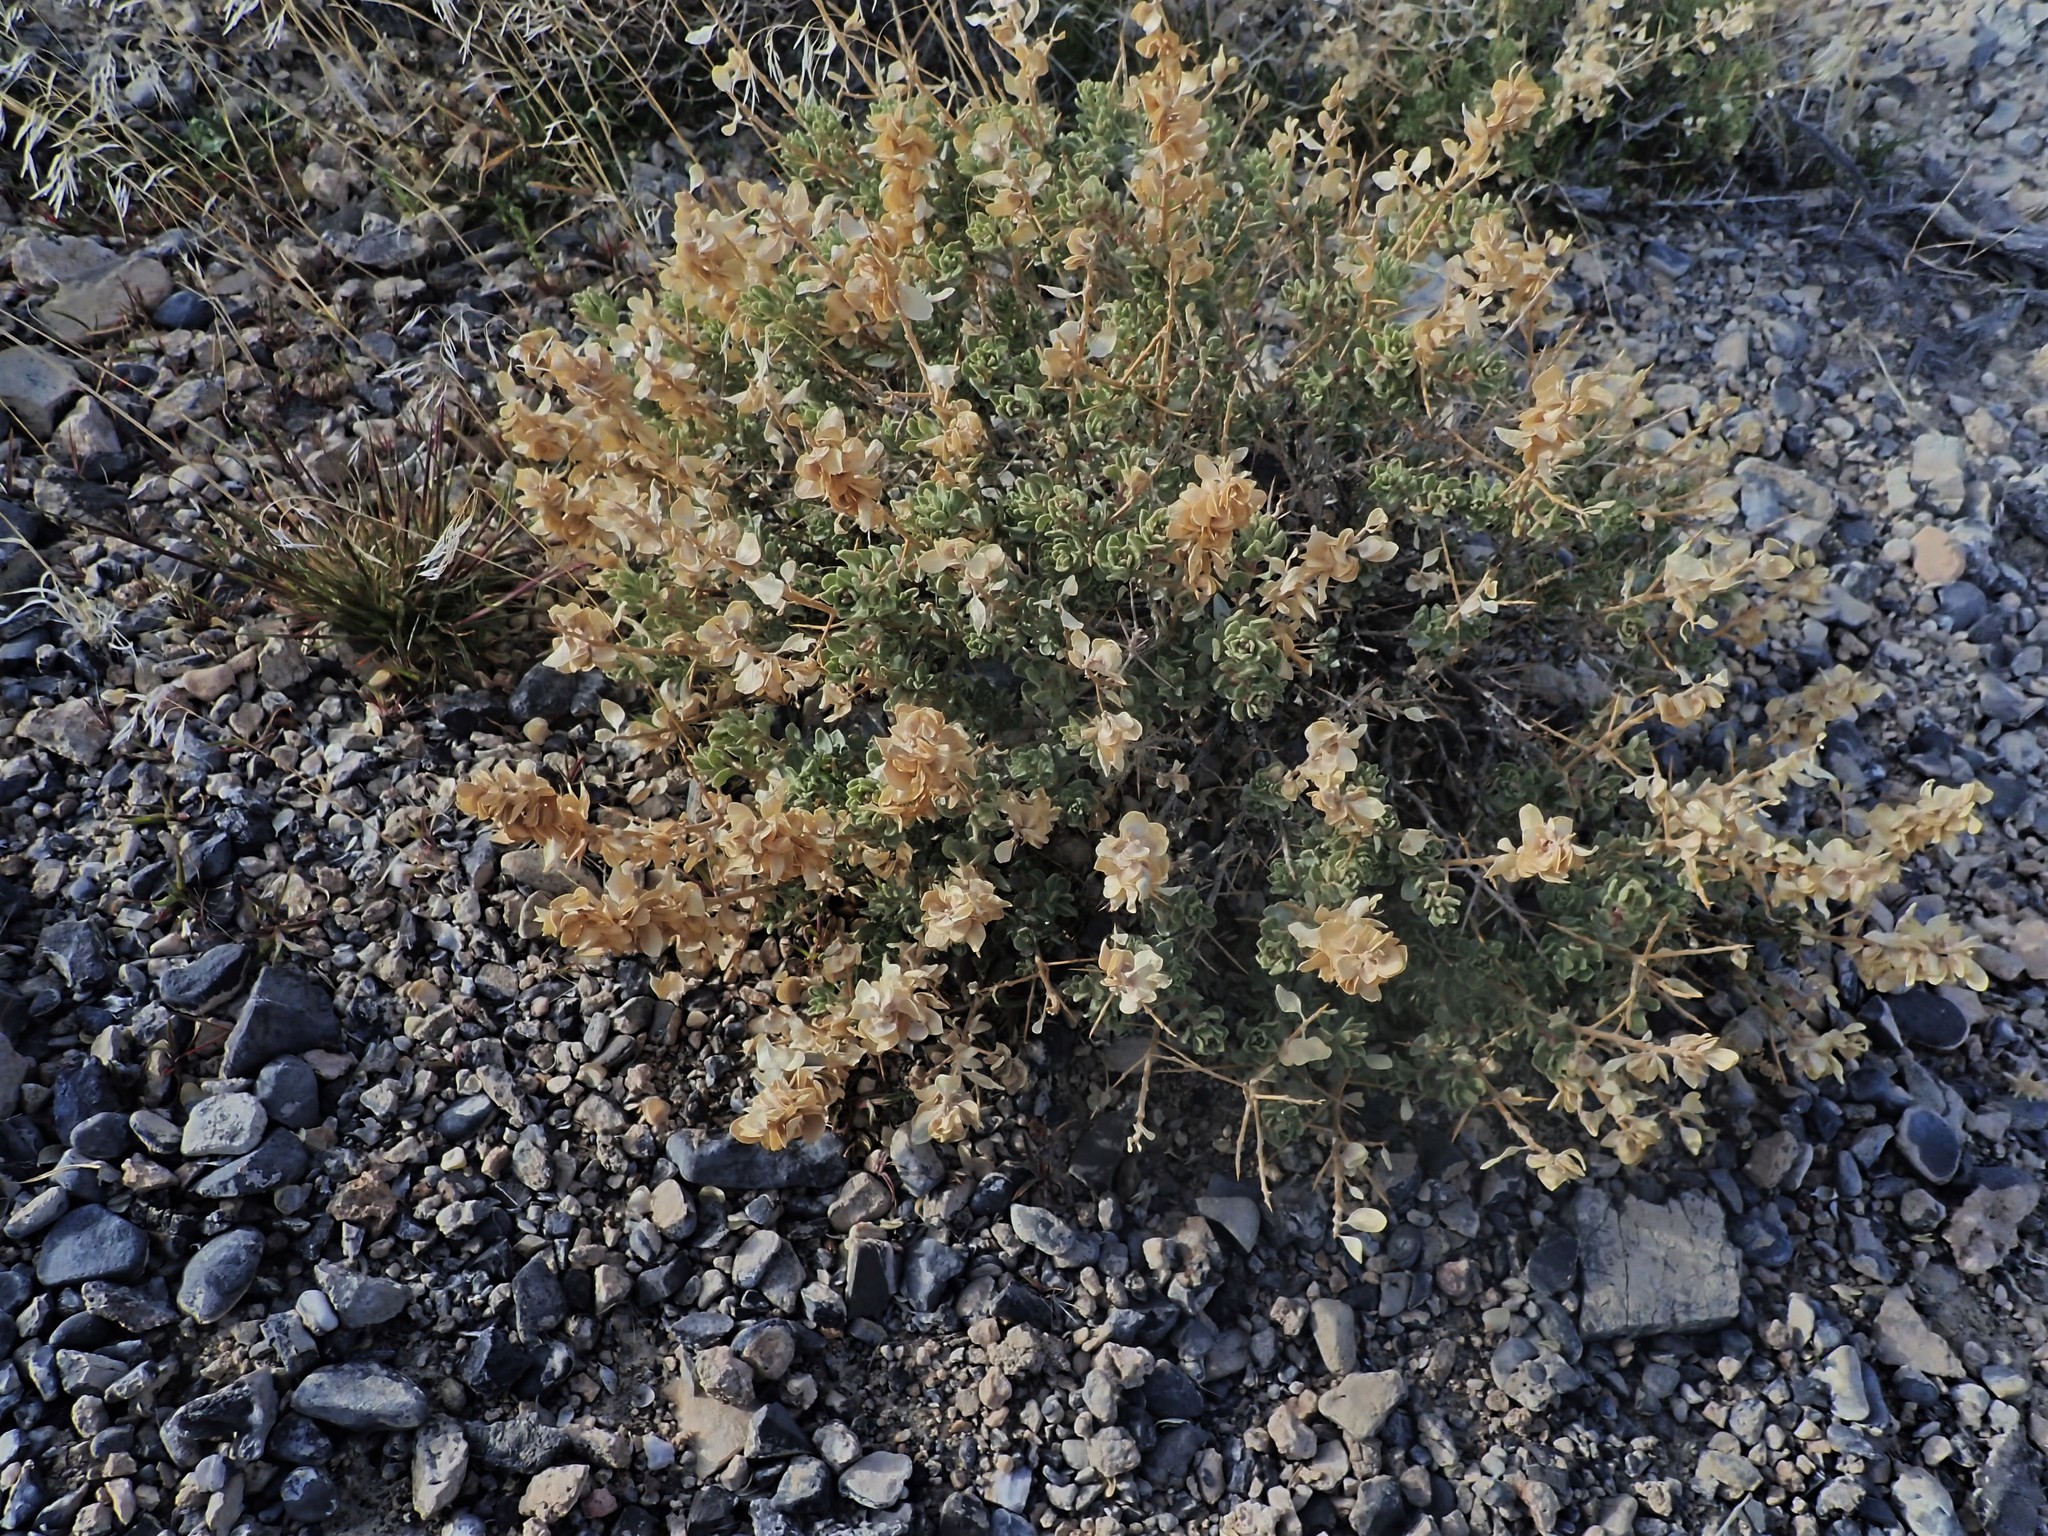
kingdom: Plantae
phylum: Tracheophyta
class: Magnoliopsida
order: Caryophyllales
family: Amaranthaceae
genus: Atriplex
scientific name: Atriplex confertifolia
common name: Shadscale
